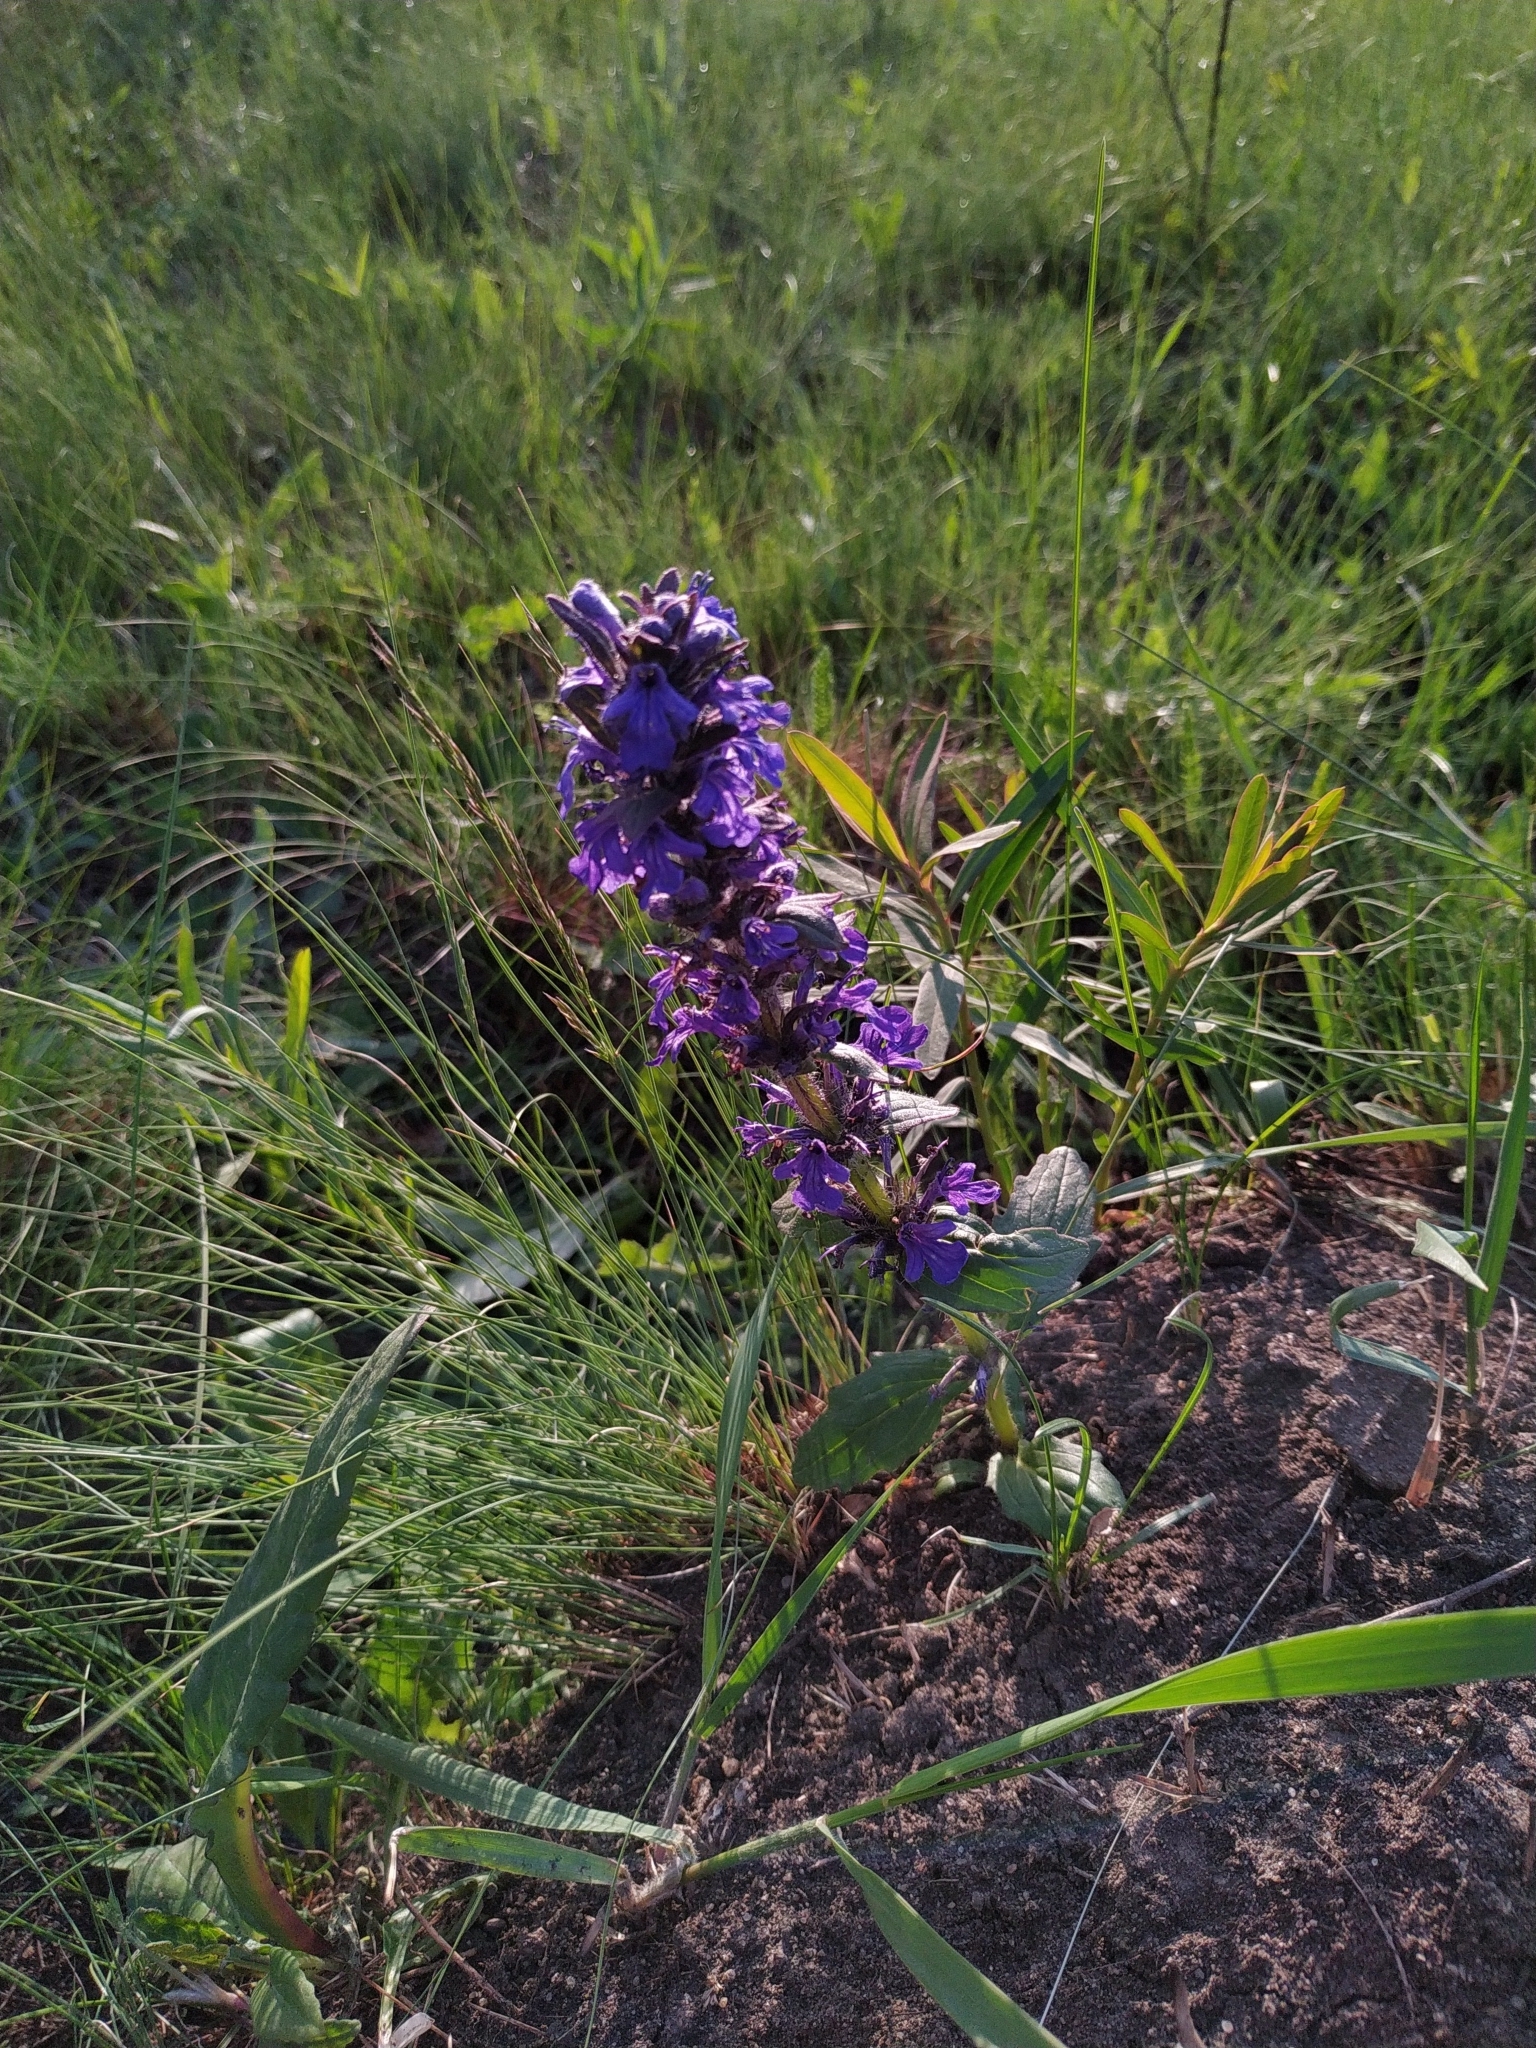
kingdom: Plantae
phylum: Tracheophyta
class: Magnoliopsida
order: Lamiales
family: Lamiaceae
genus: Ajuga
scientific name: Ajuga genevensis
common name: Blue bugle
